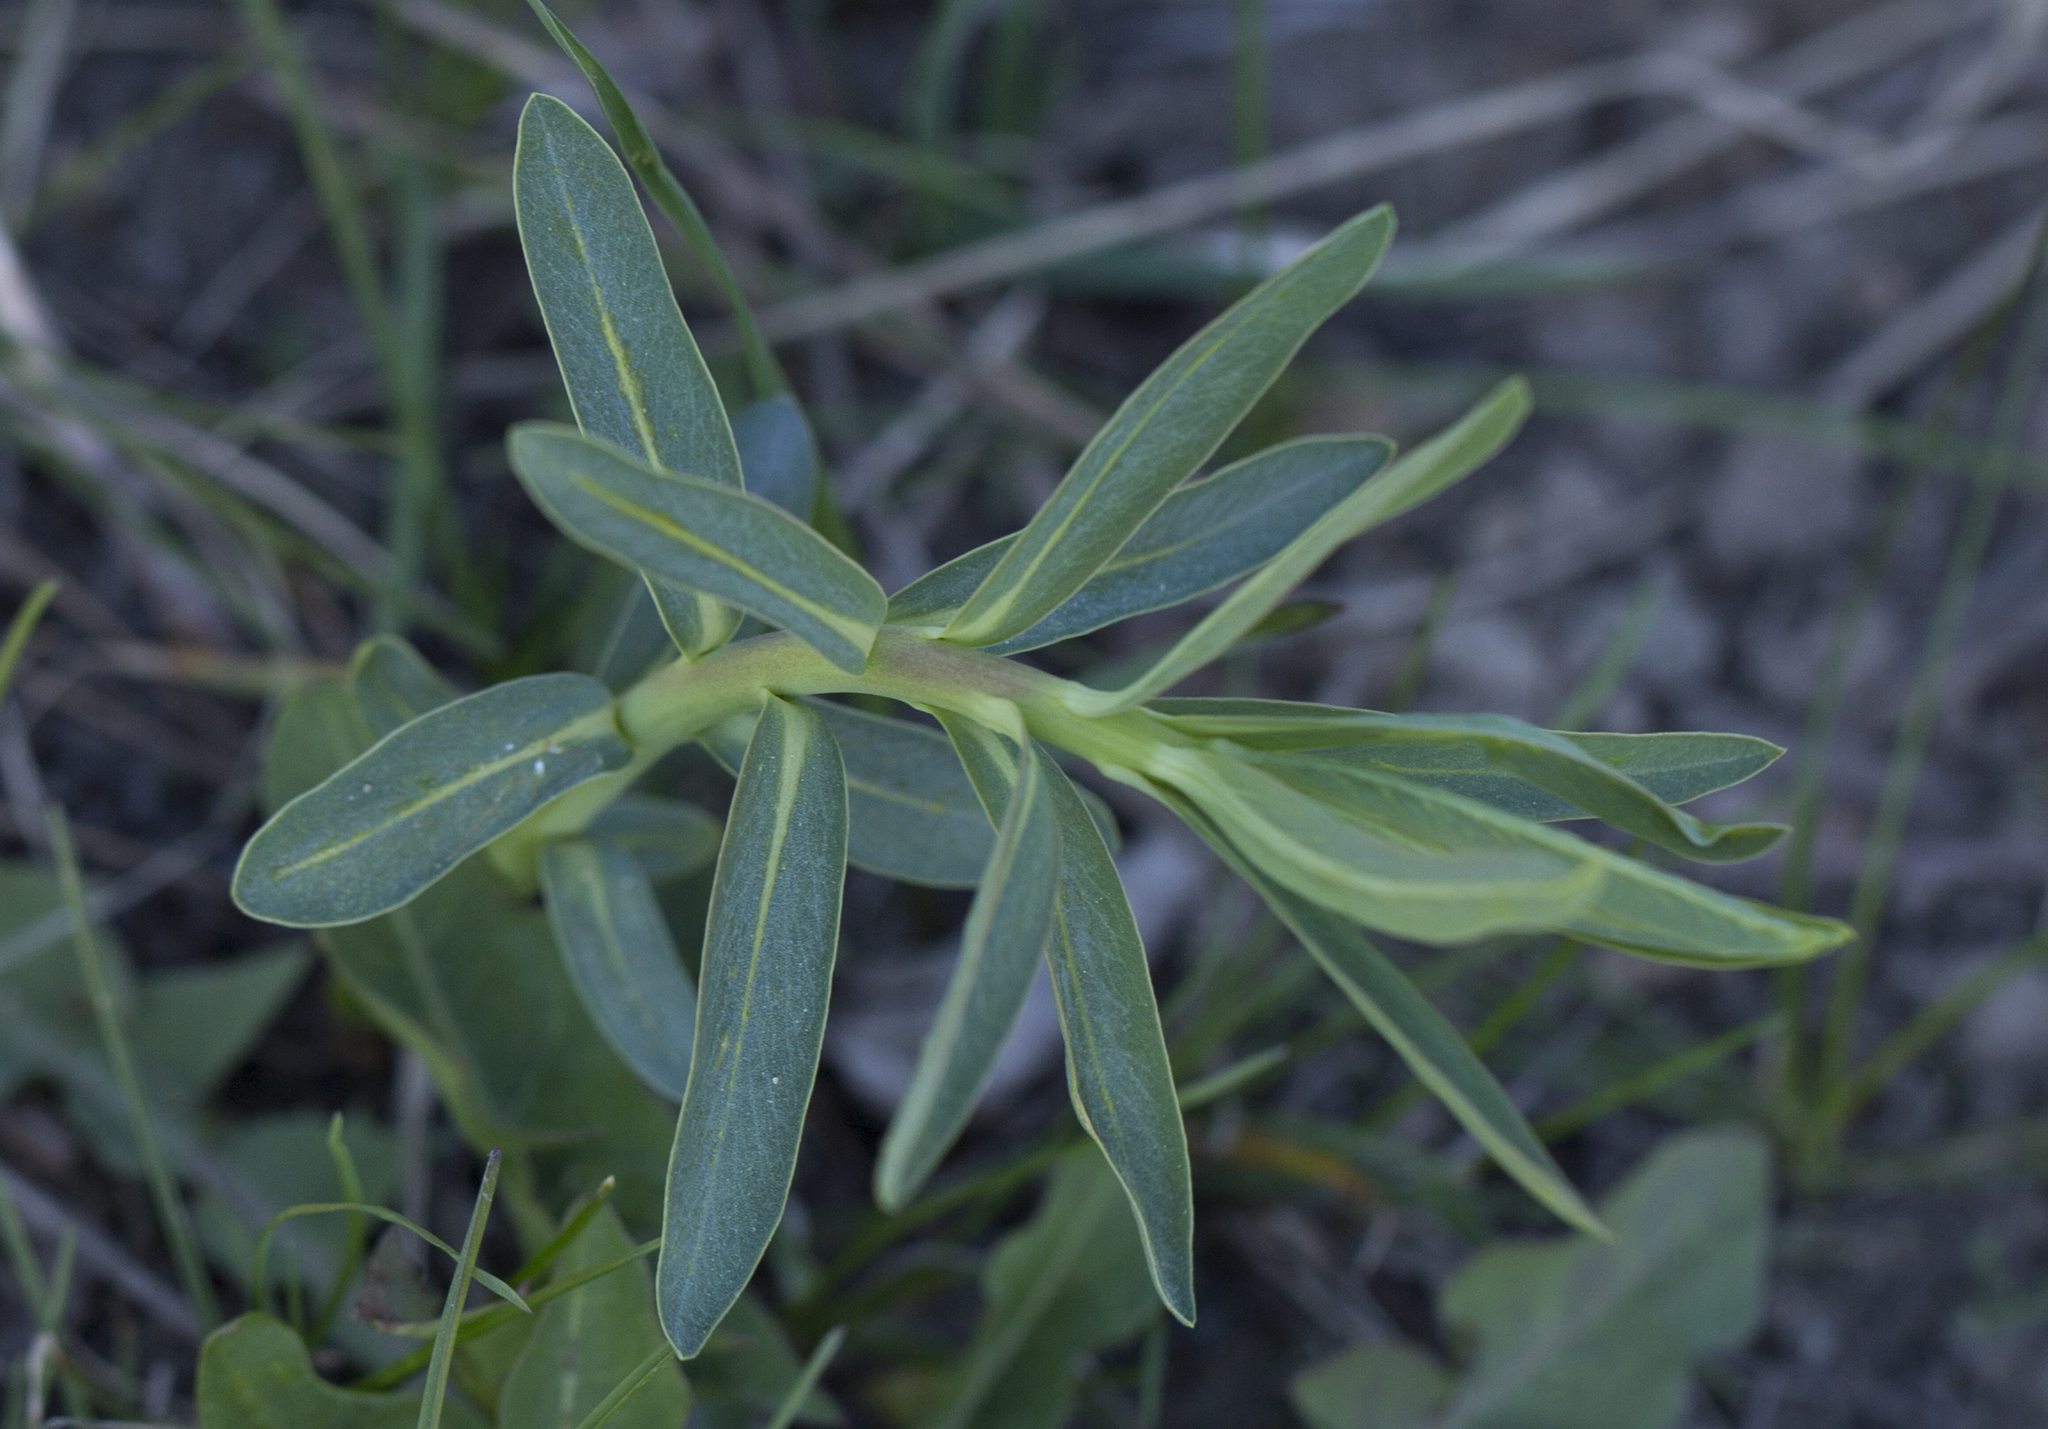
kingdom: Plantae
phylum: Tracheophyta
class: Magnoliopsida
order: Malpighiales
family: Euphorbiaceae
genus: Euphorbia
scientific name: Euphorbia virgata
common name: Leafy spurge
